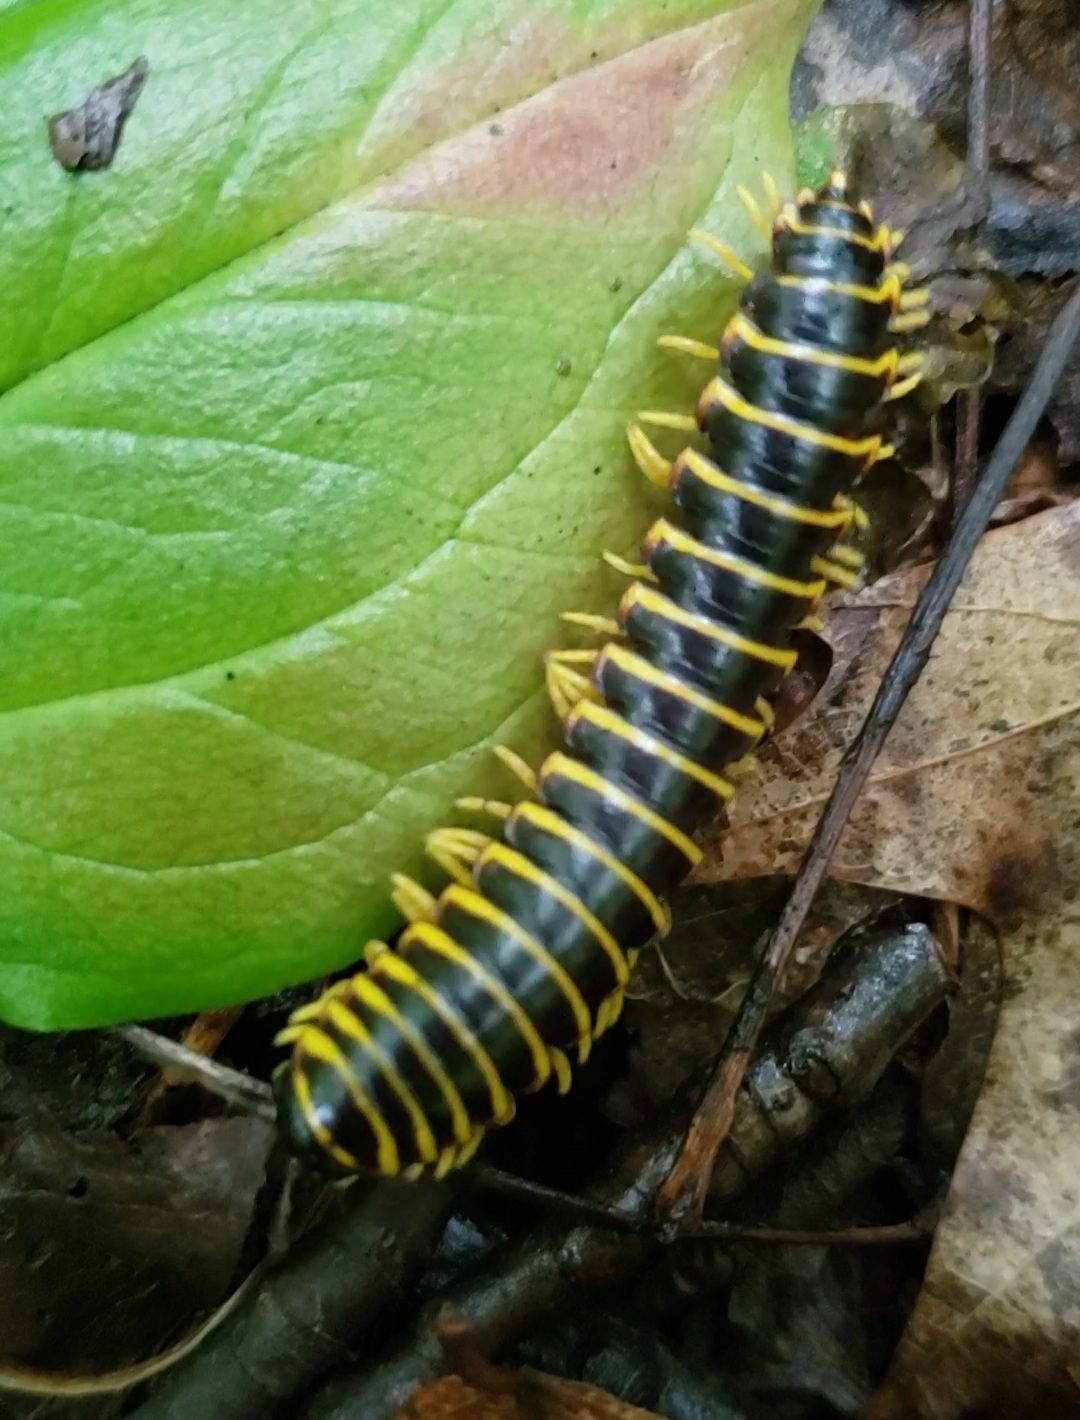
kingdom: Animalia
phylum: Arthropoda
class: Diplopoda
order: Polydesmida
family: Xystodesmidae
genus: Apheloria
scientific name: Apheloria virginiensis
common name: Black-and-gold flat millipede
